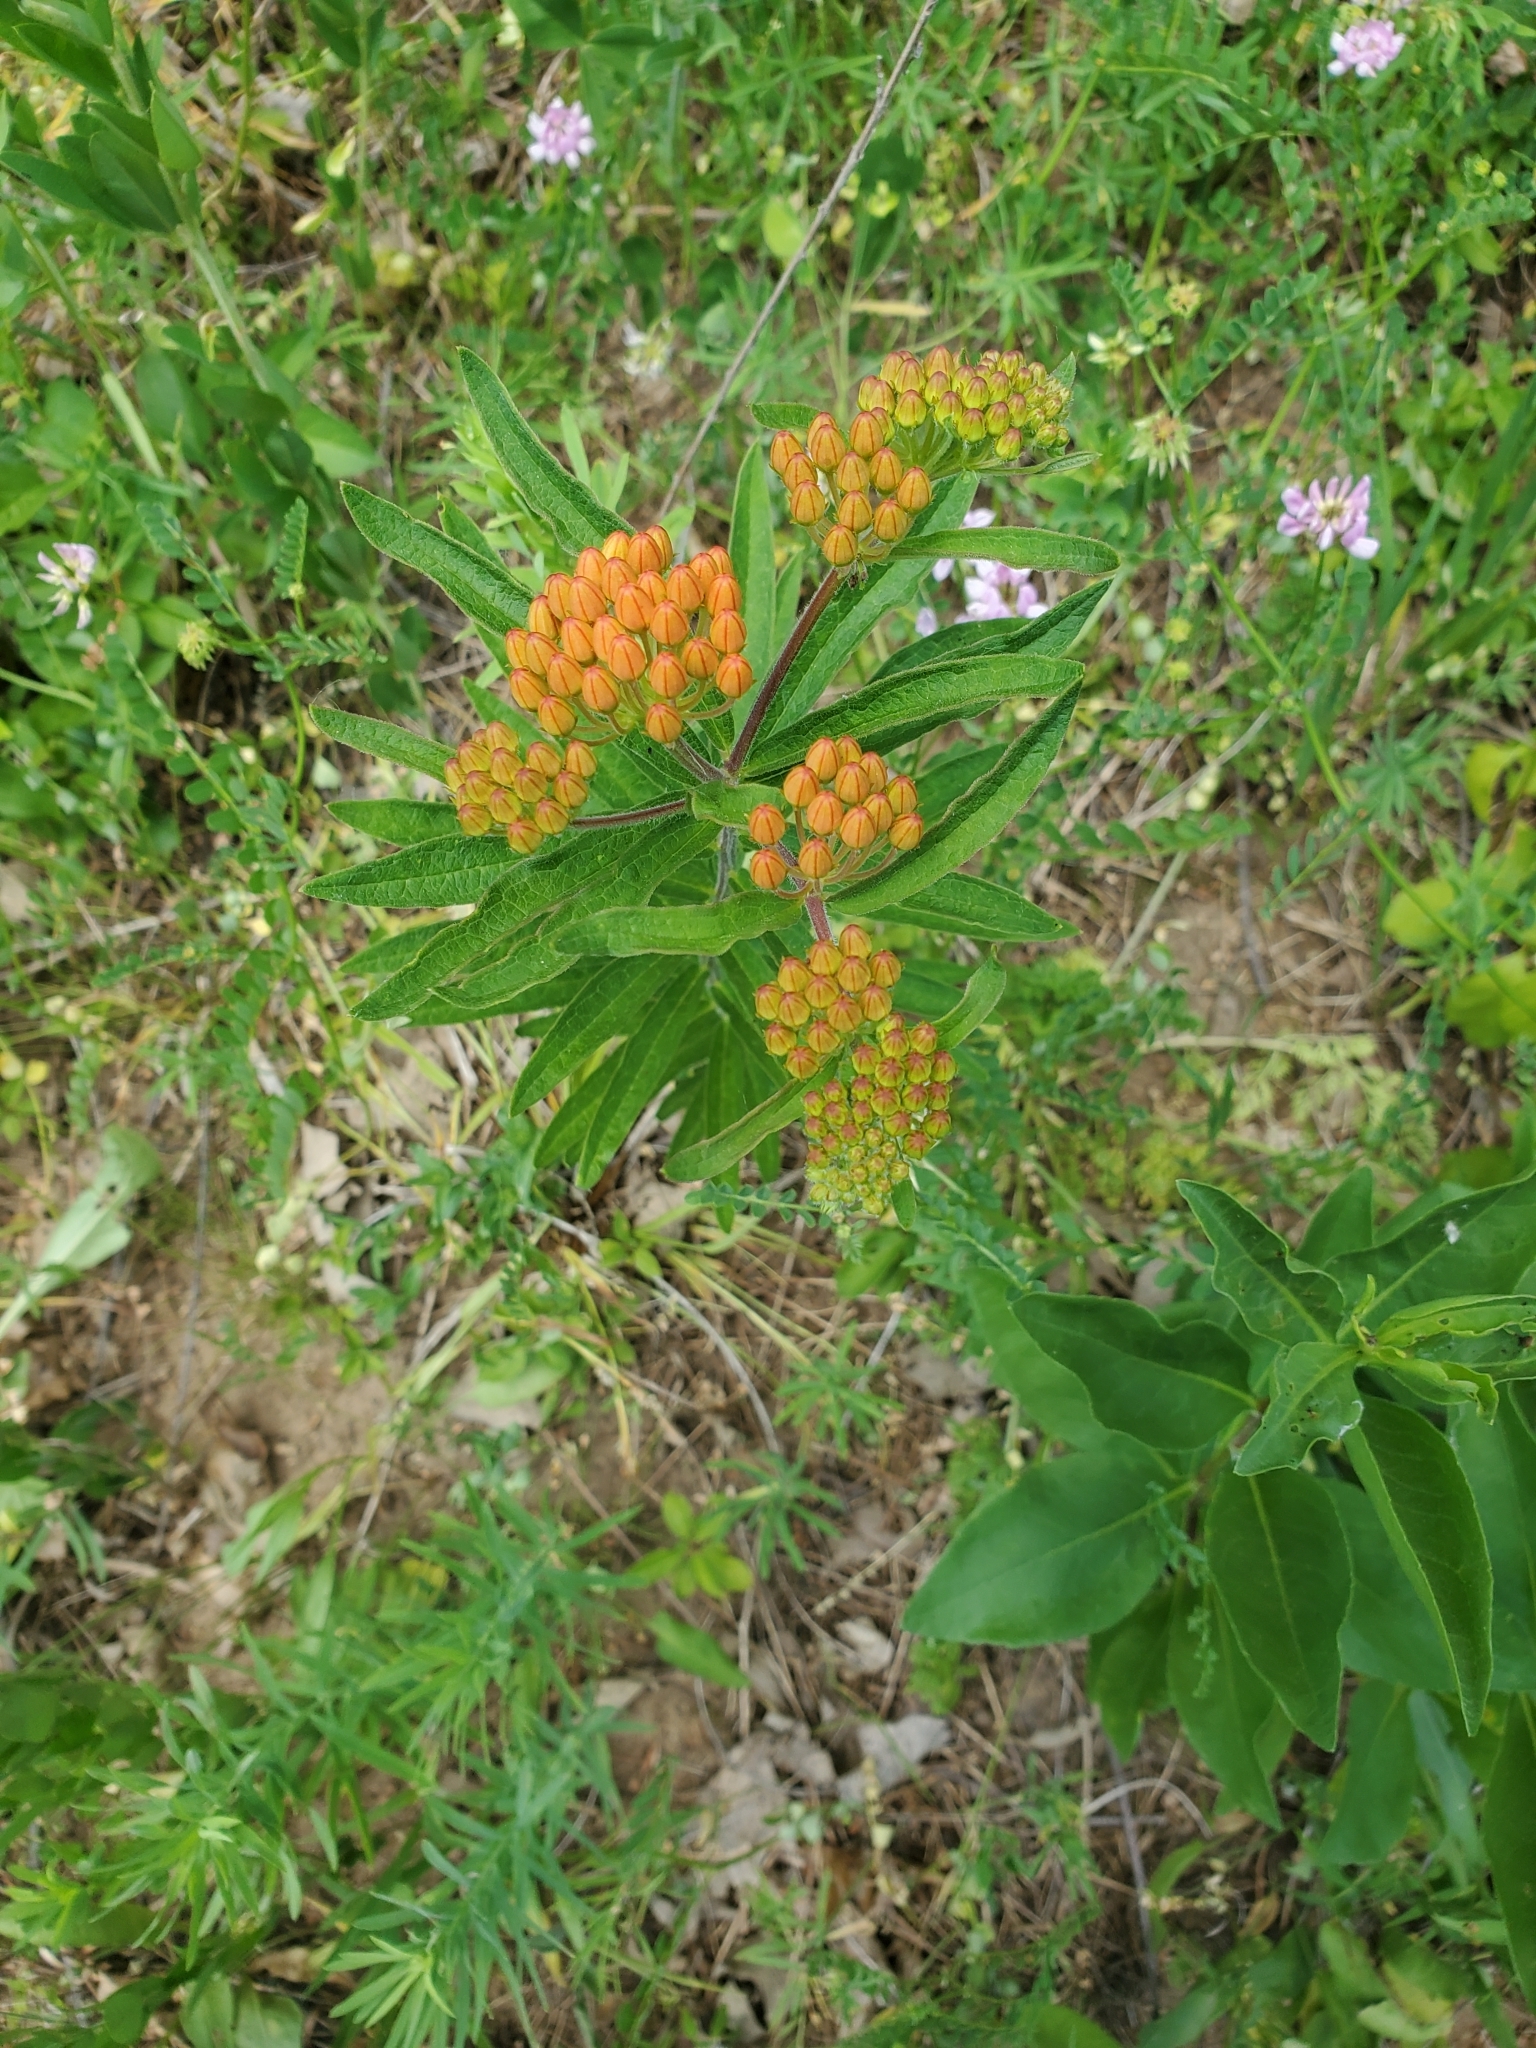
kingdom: Plantae
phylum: Tracheophyta
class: Magnoliopsida
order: Gentianales
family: Apocynaceae
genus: Asclepias
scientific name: Asclepias tuberosa
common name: Butterfly milkweed
